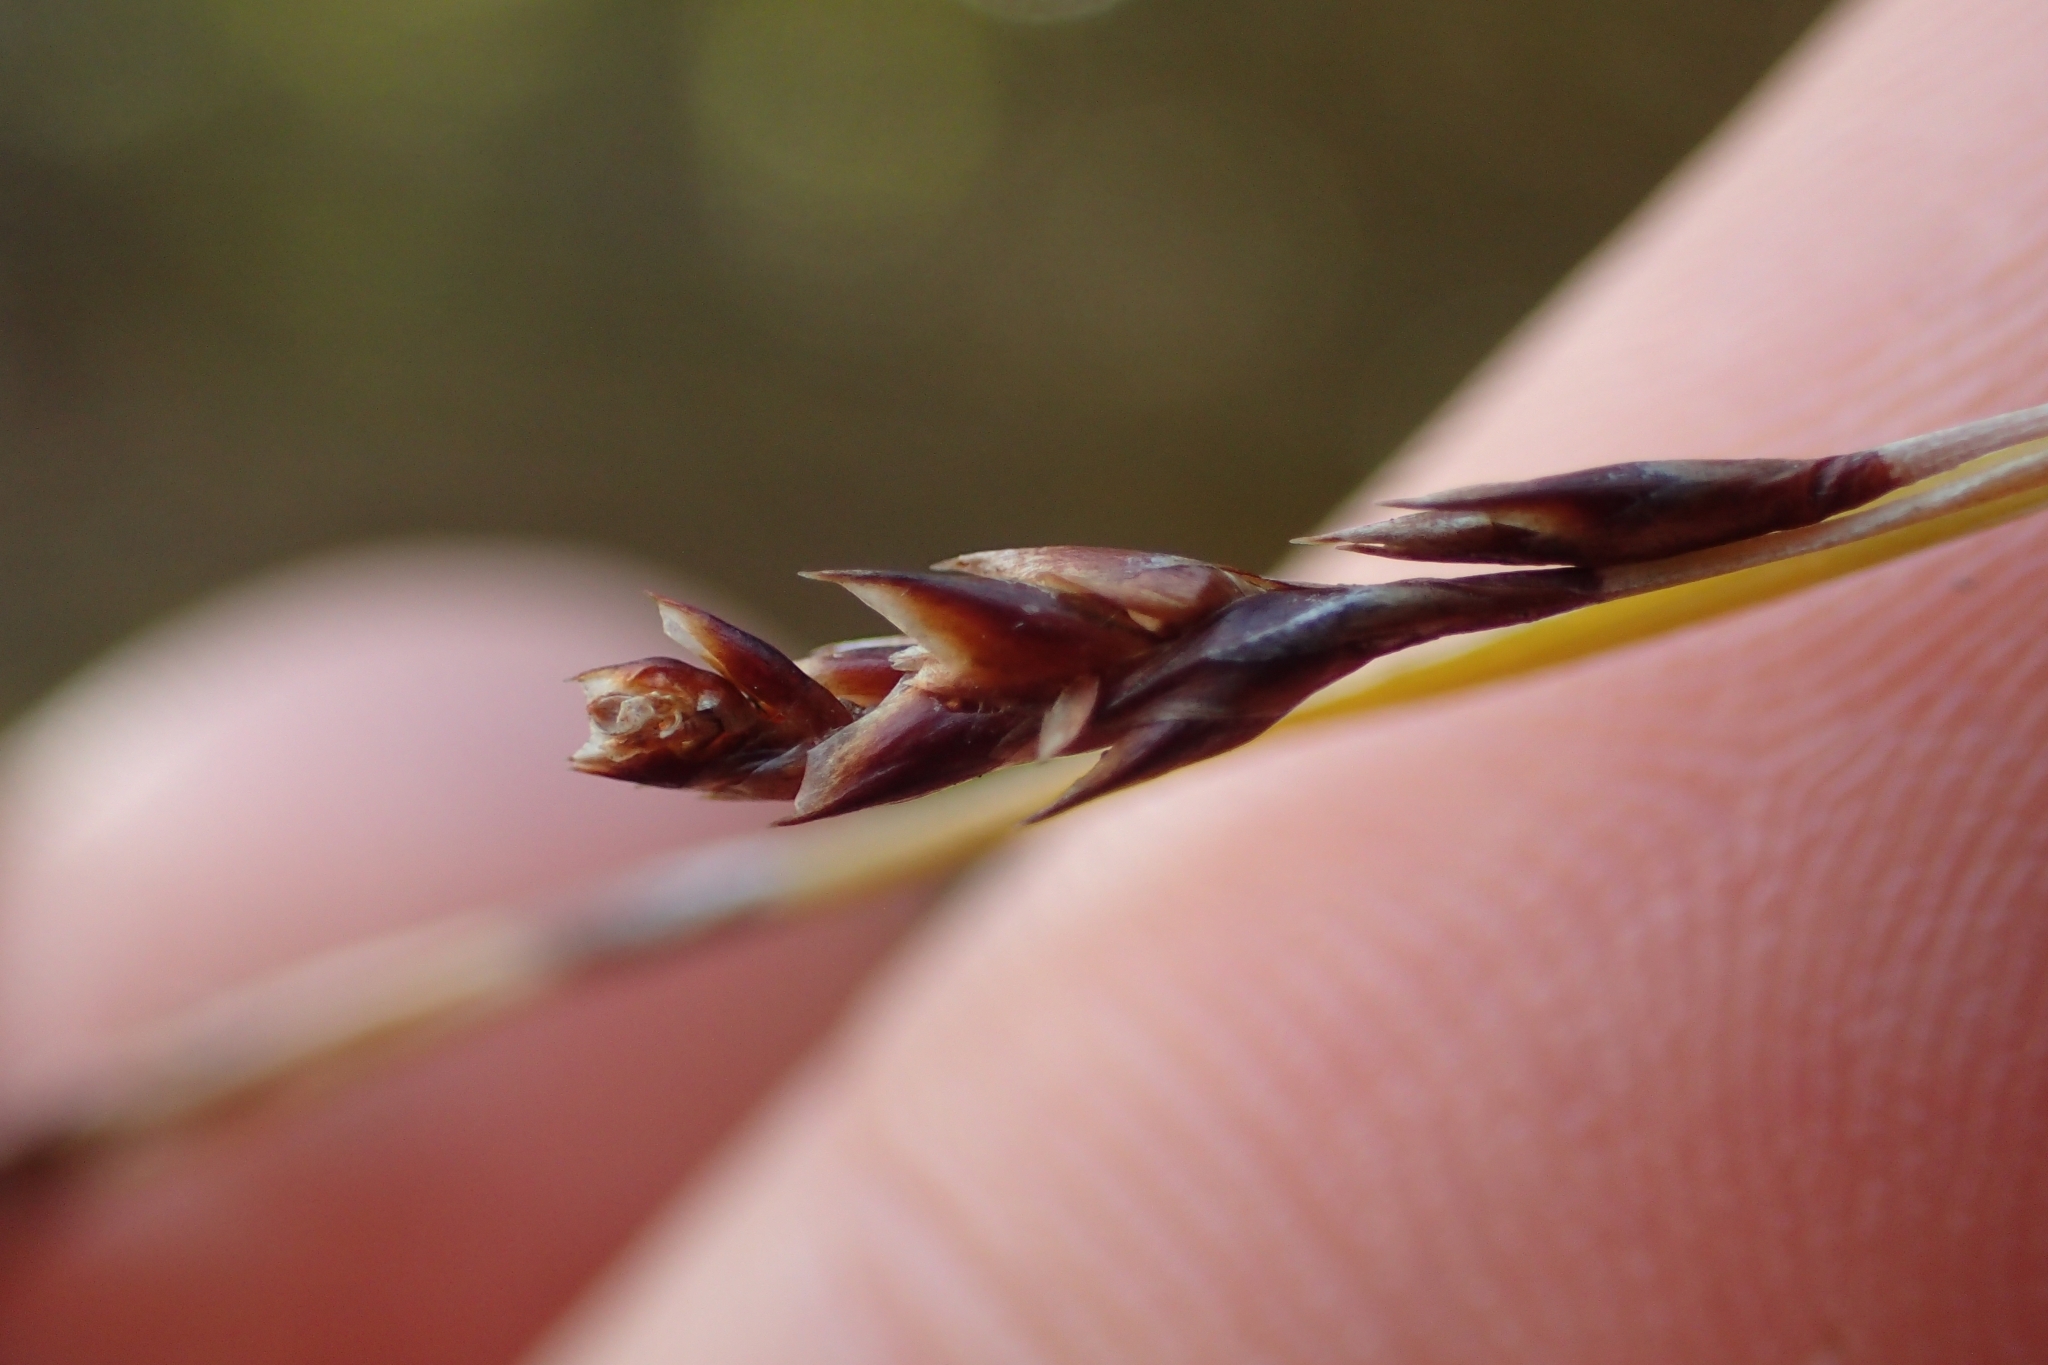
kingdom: Plantae
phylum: Tracheophyta
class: Liliopsida
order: Poales
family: Restionaceae
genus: Apodasmia
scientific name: Apodasmia similis
